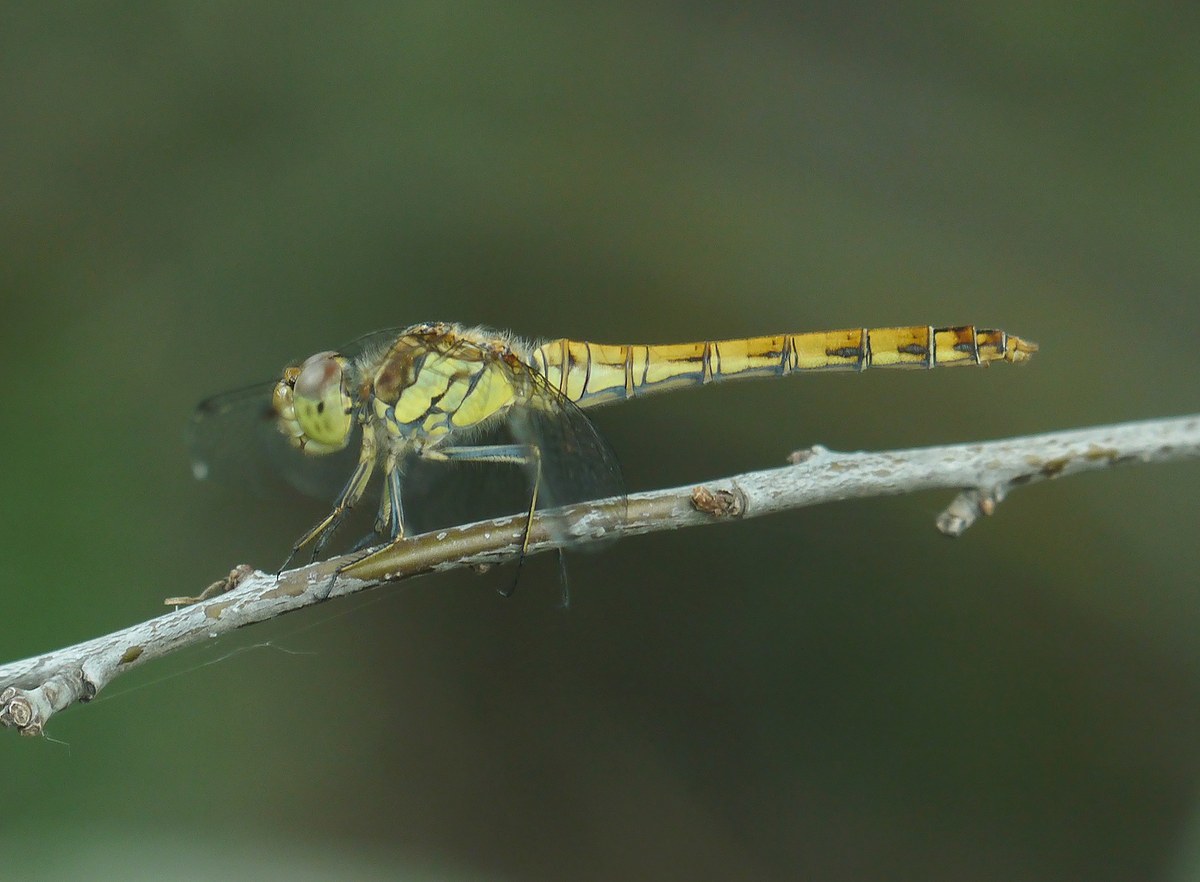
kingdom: Animalia
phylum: Arthropoda
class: Insecta
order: Odonata
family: Libellulidae
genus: Sympetrum
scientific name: Sympetrum striolatum
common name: Common darter
